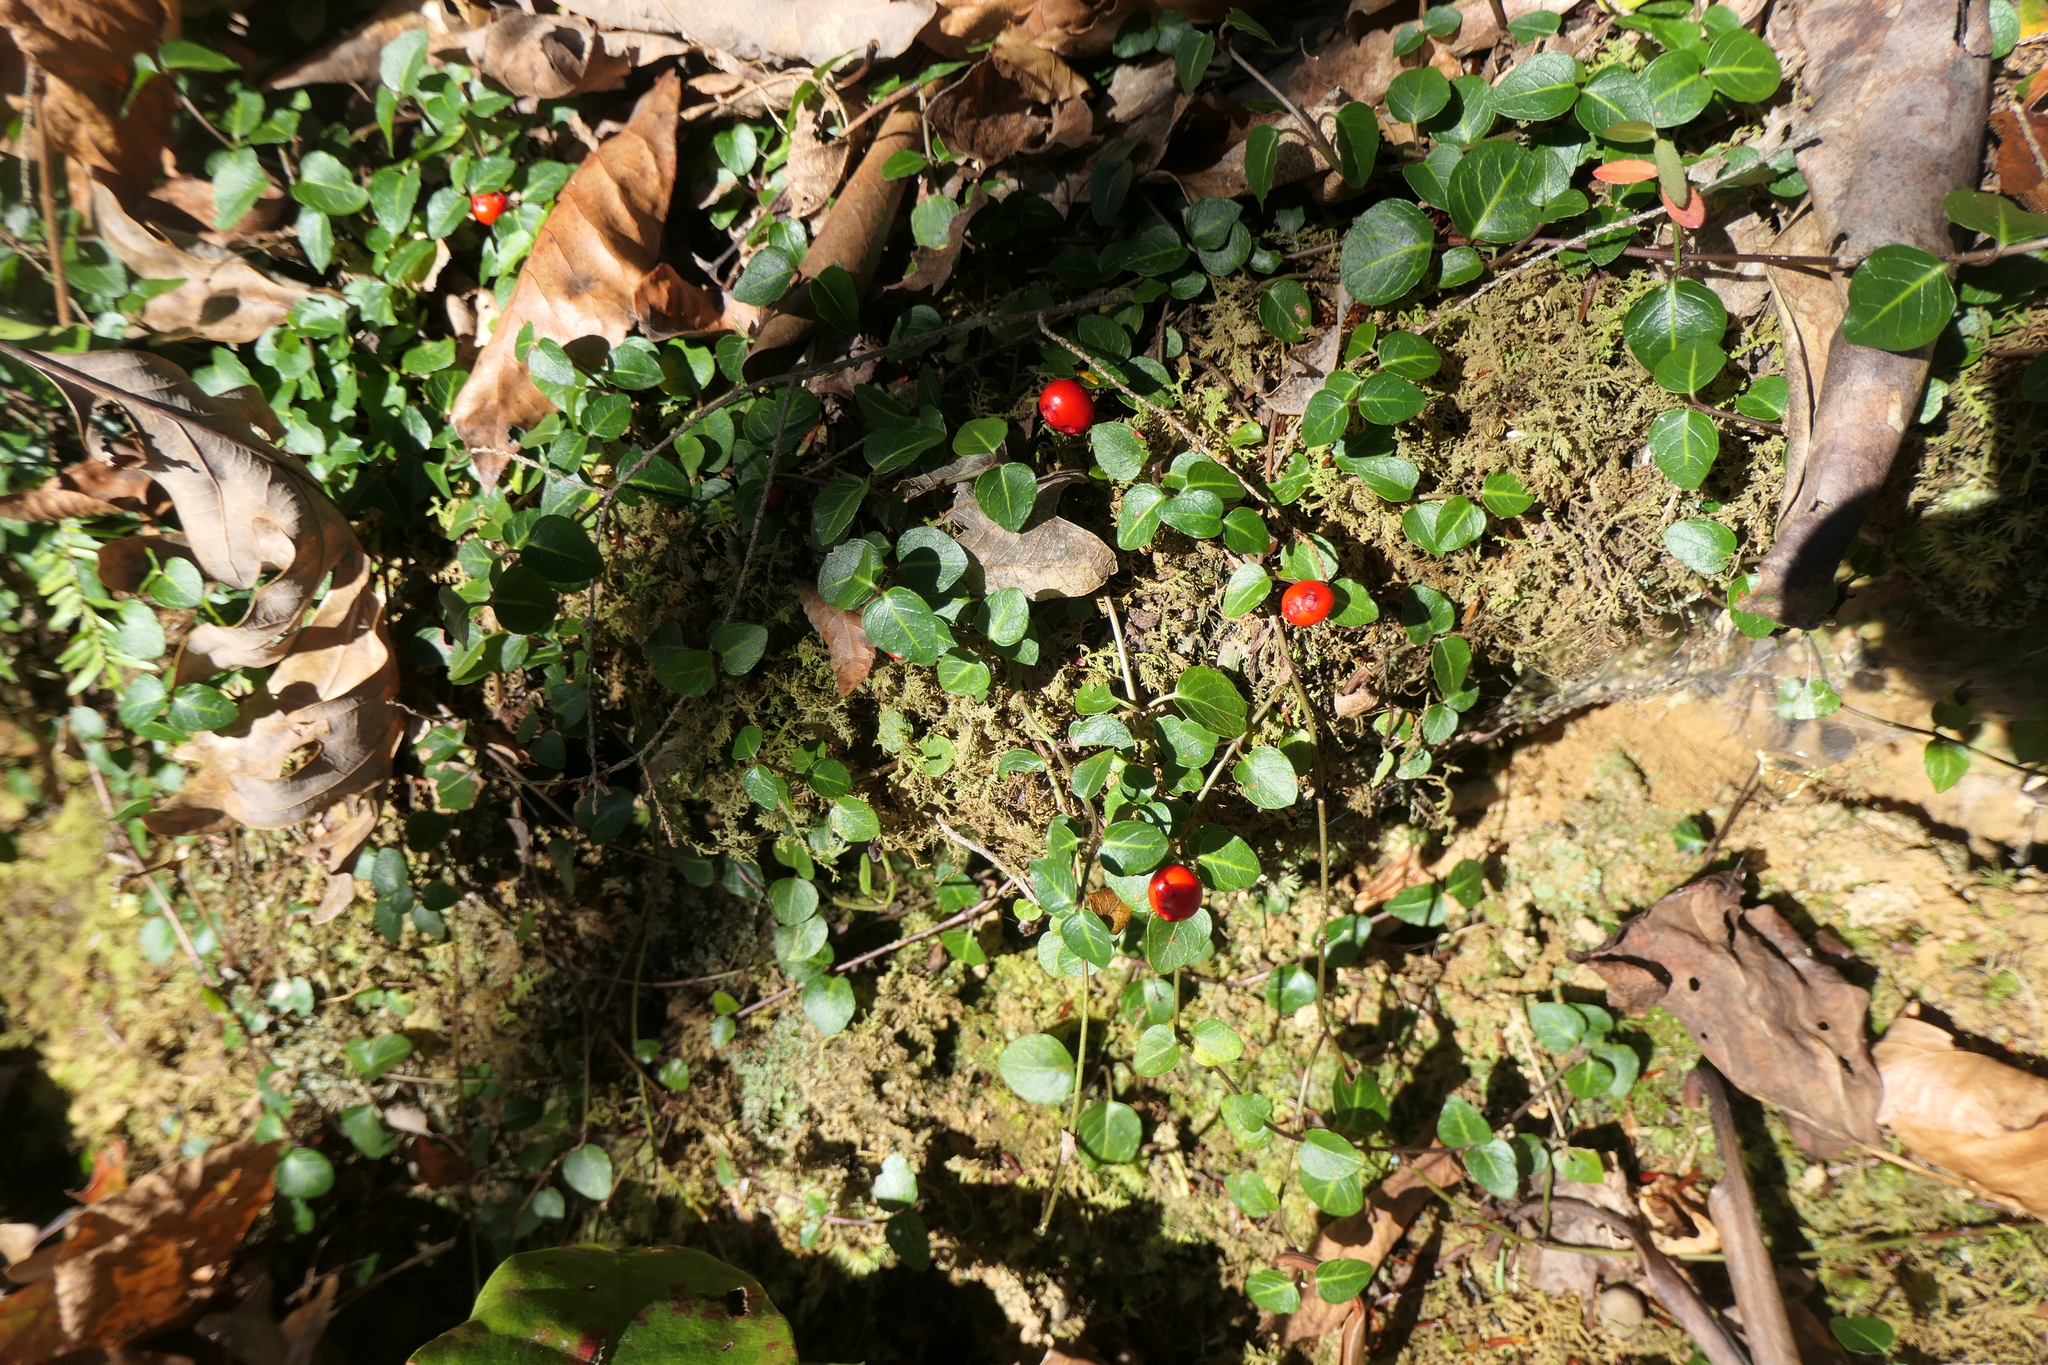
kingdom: Plantae
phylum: Tracheophyta
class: Magnoliopsida
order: Gentianales
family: Rubiaceae
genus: Mitchella
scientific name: Mitchella repens
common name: Partridge-berry
